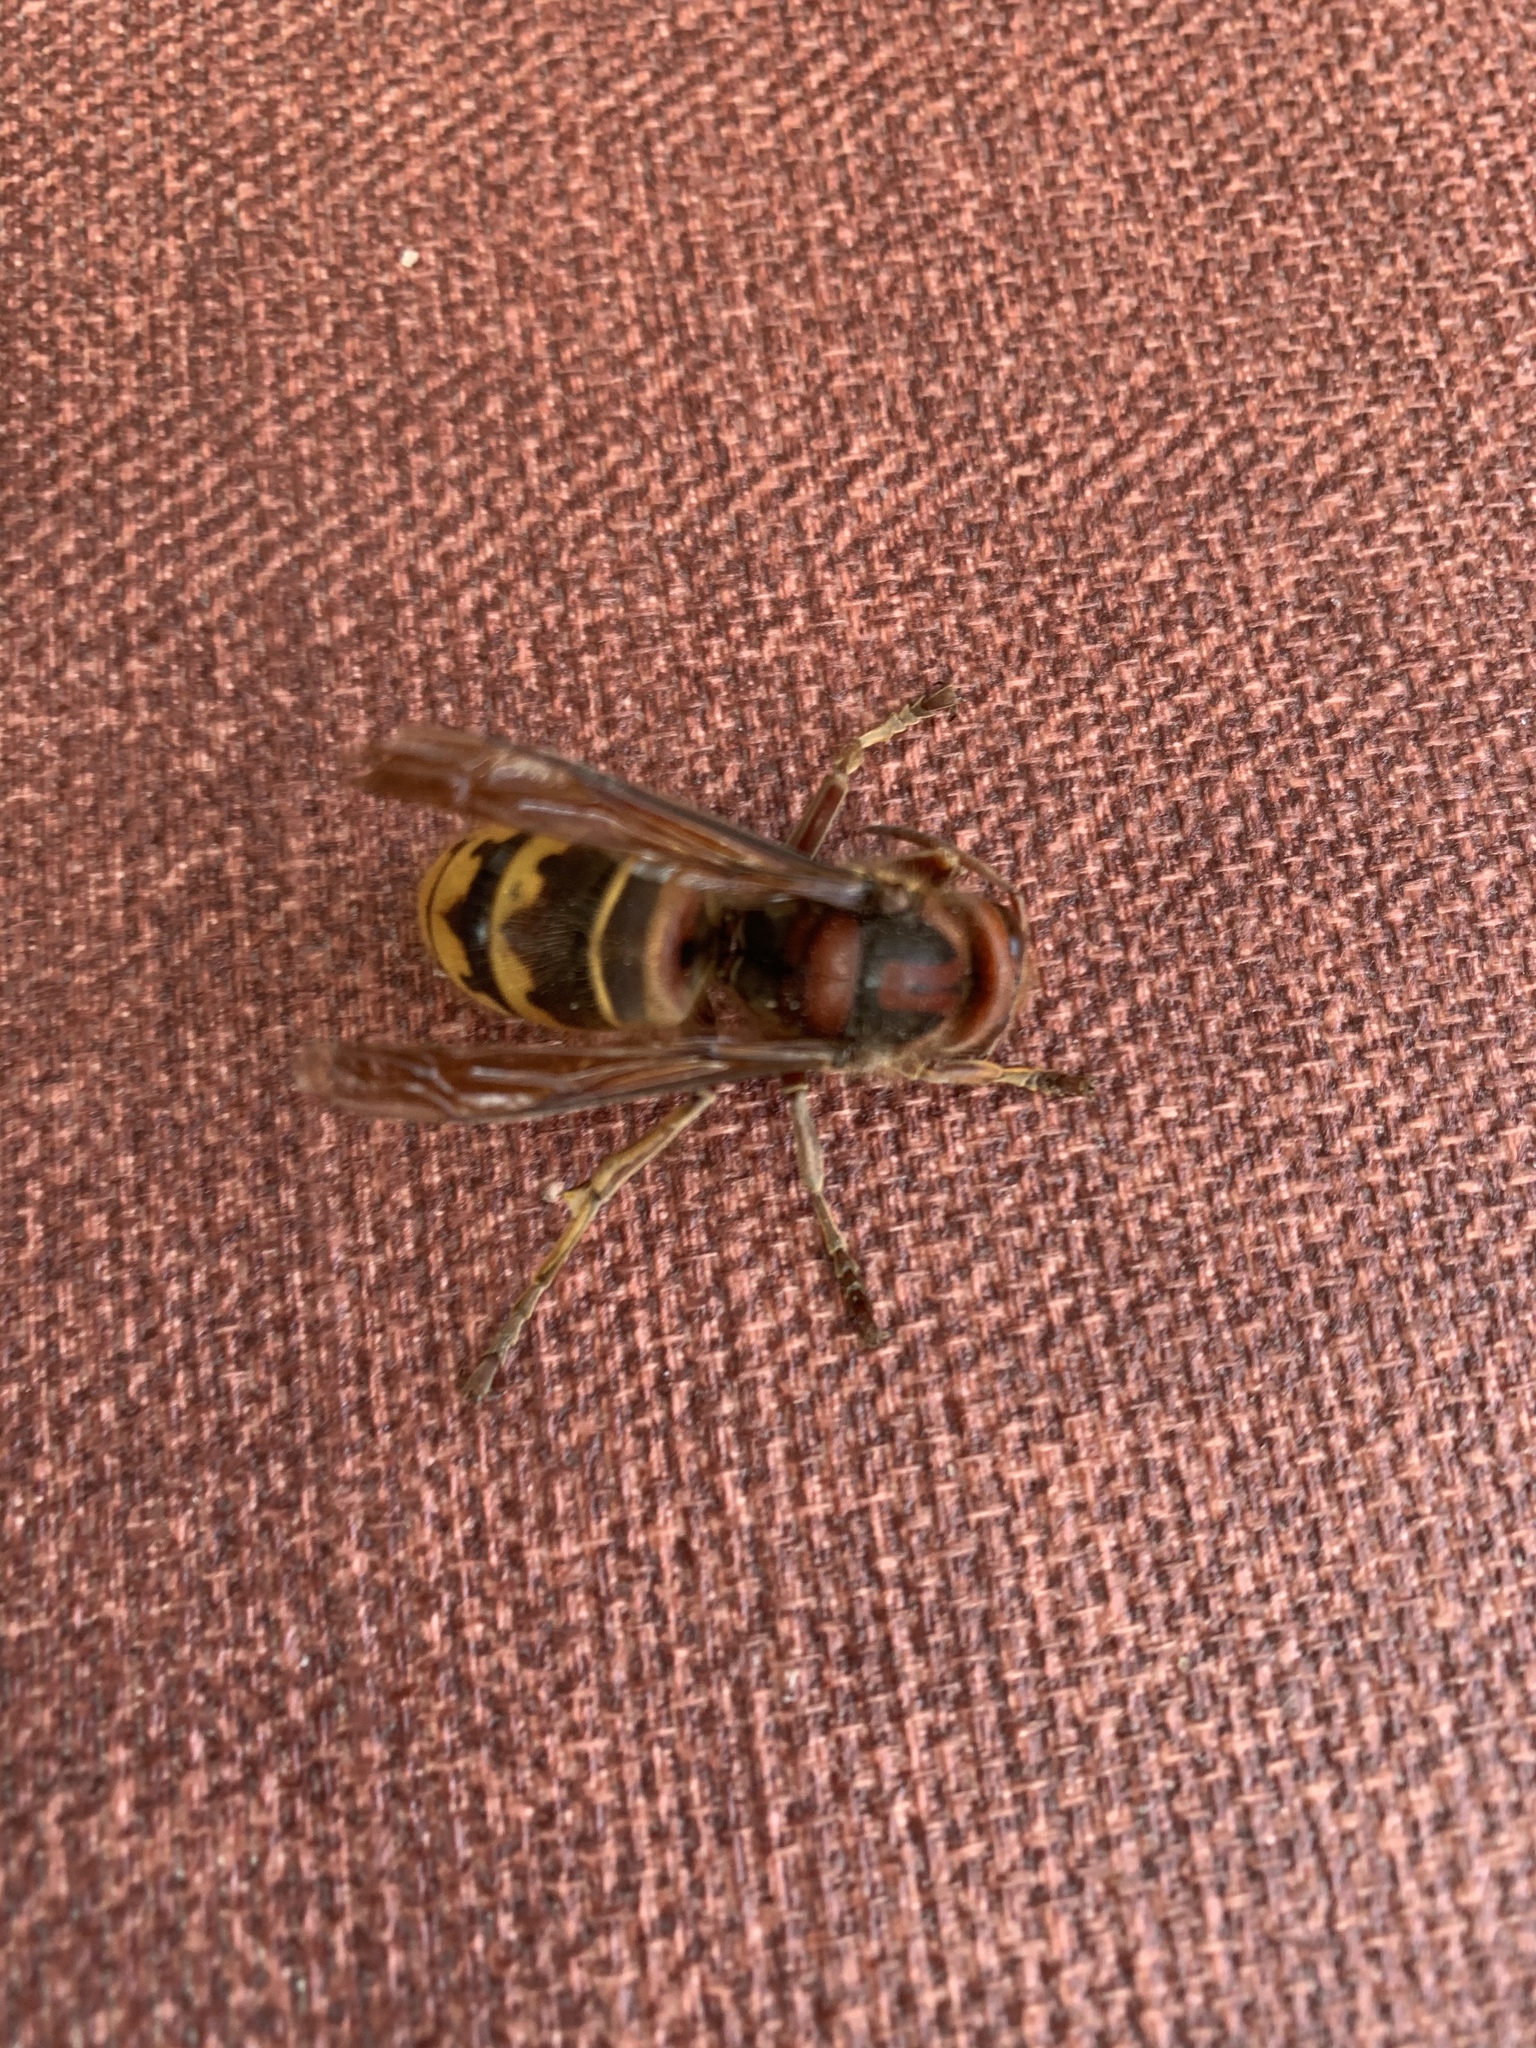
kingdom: Animalia
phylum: Arthropoda
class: Insecta
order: Hymenoptera
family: Vespidae
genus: Vespa
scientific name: Vespa crabro
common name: Hornet
